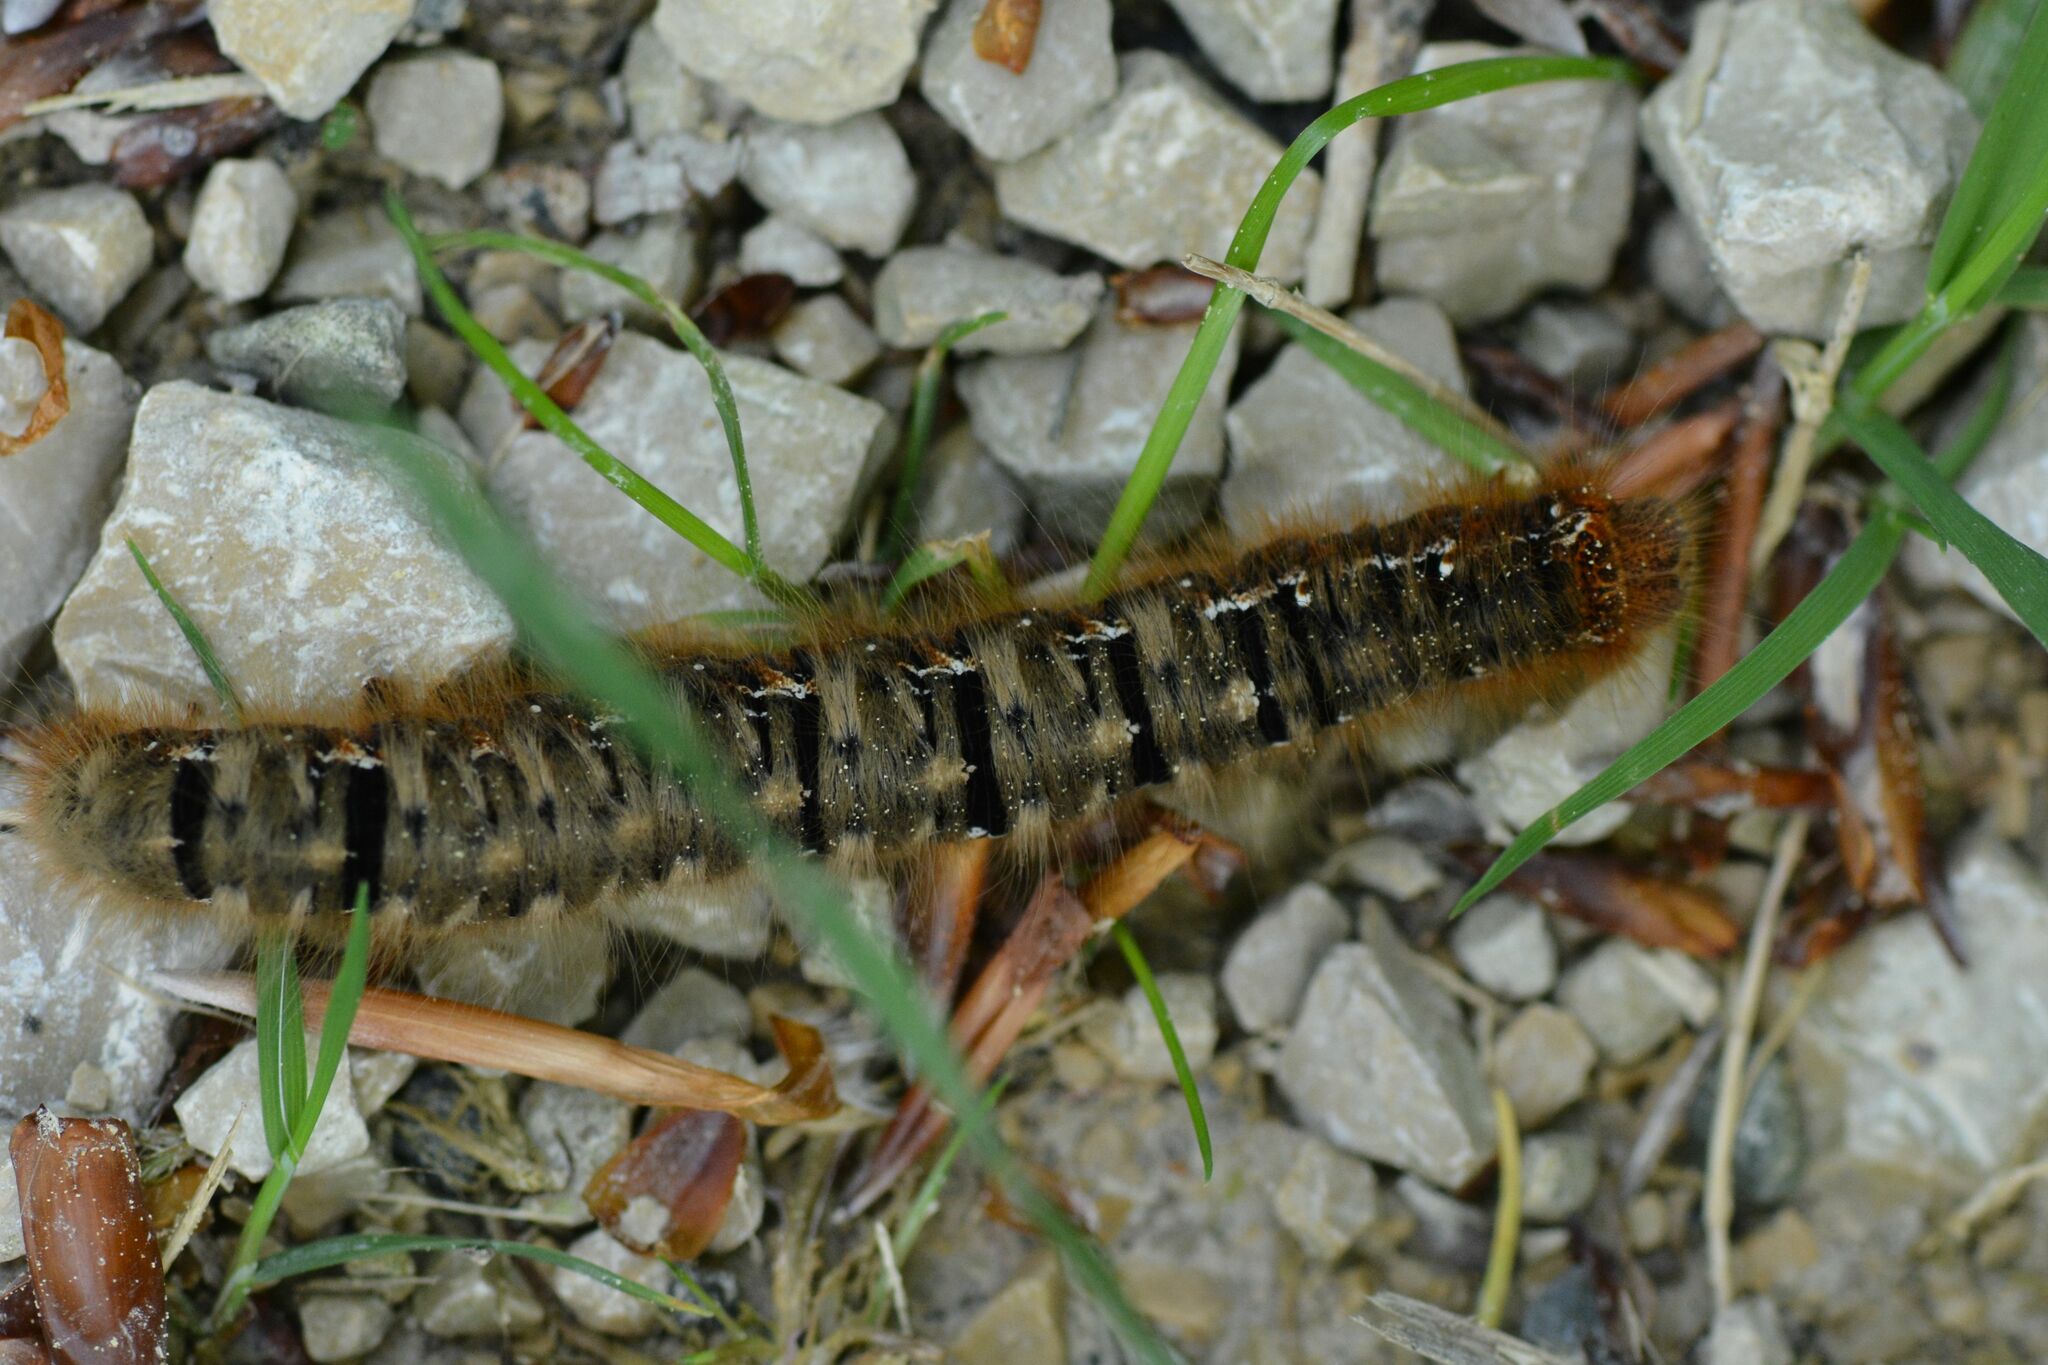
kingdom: Animalia
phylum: Arthropoda
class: Insecta
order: Lepidoptera
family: Lasiocampidae
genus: Lasiocampa
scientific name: Lasiocampa quercus
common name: Oak eggar
